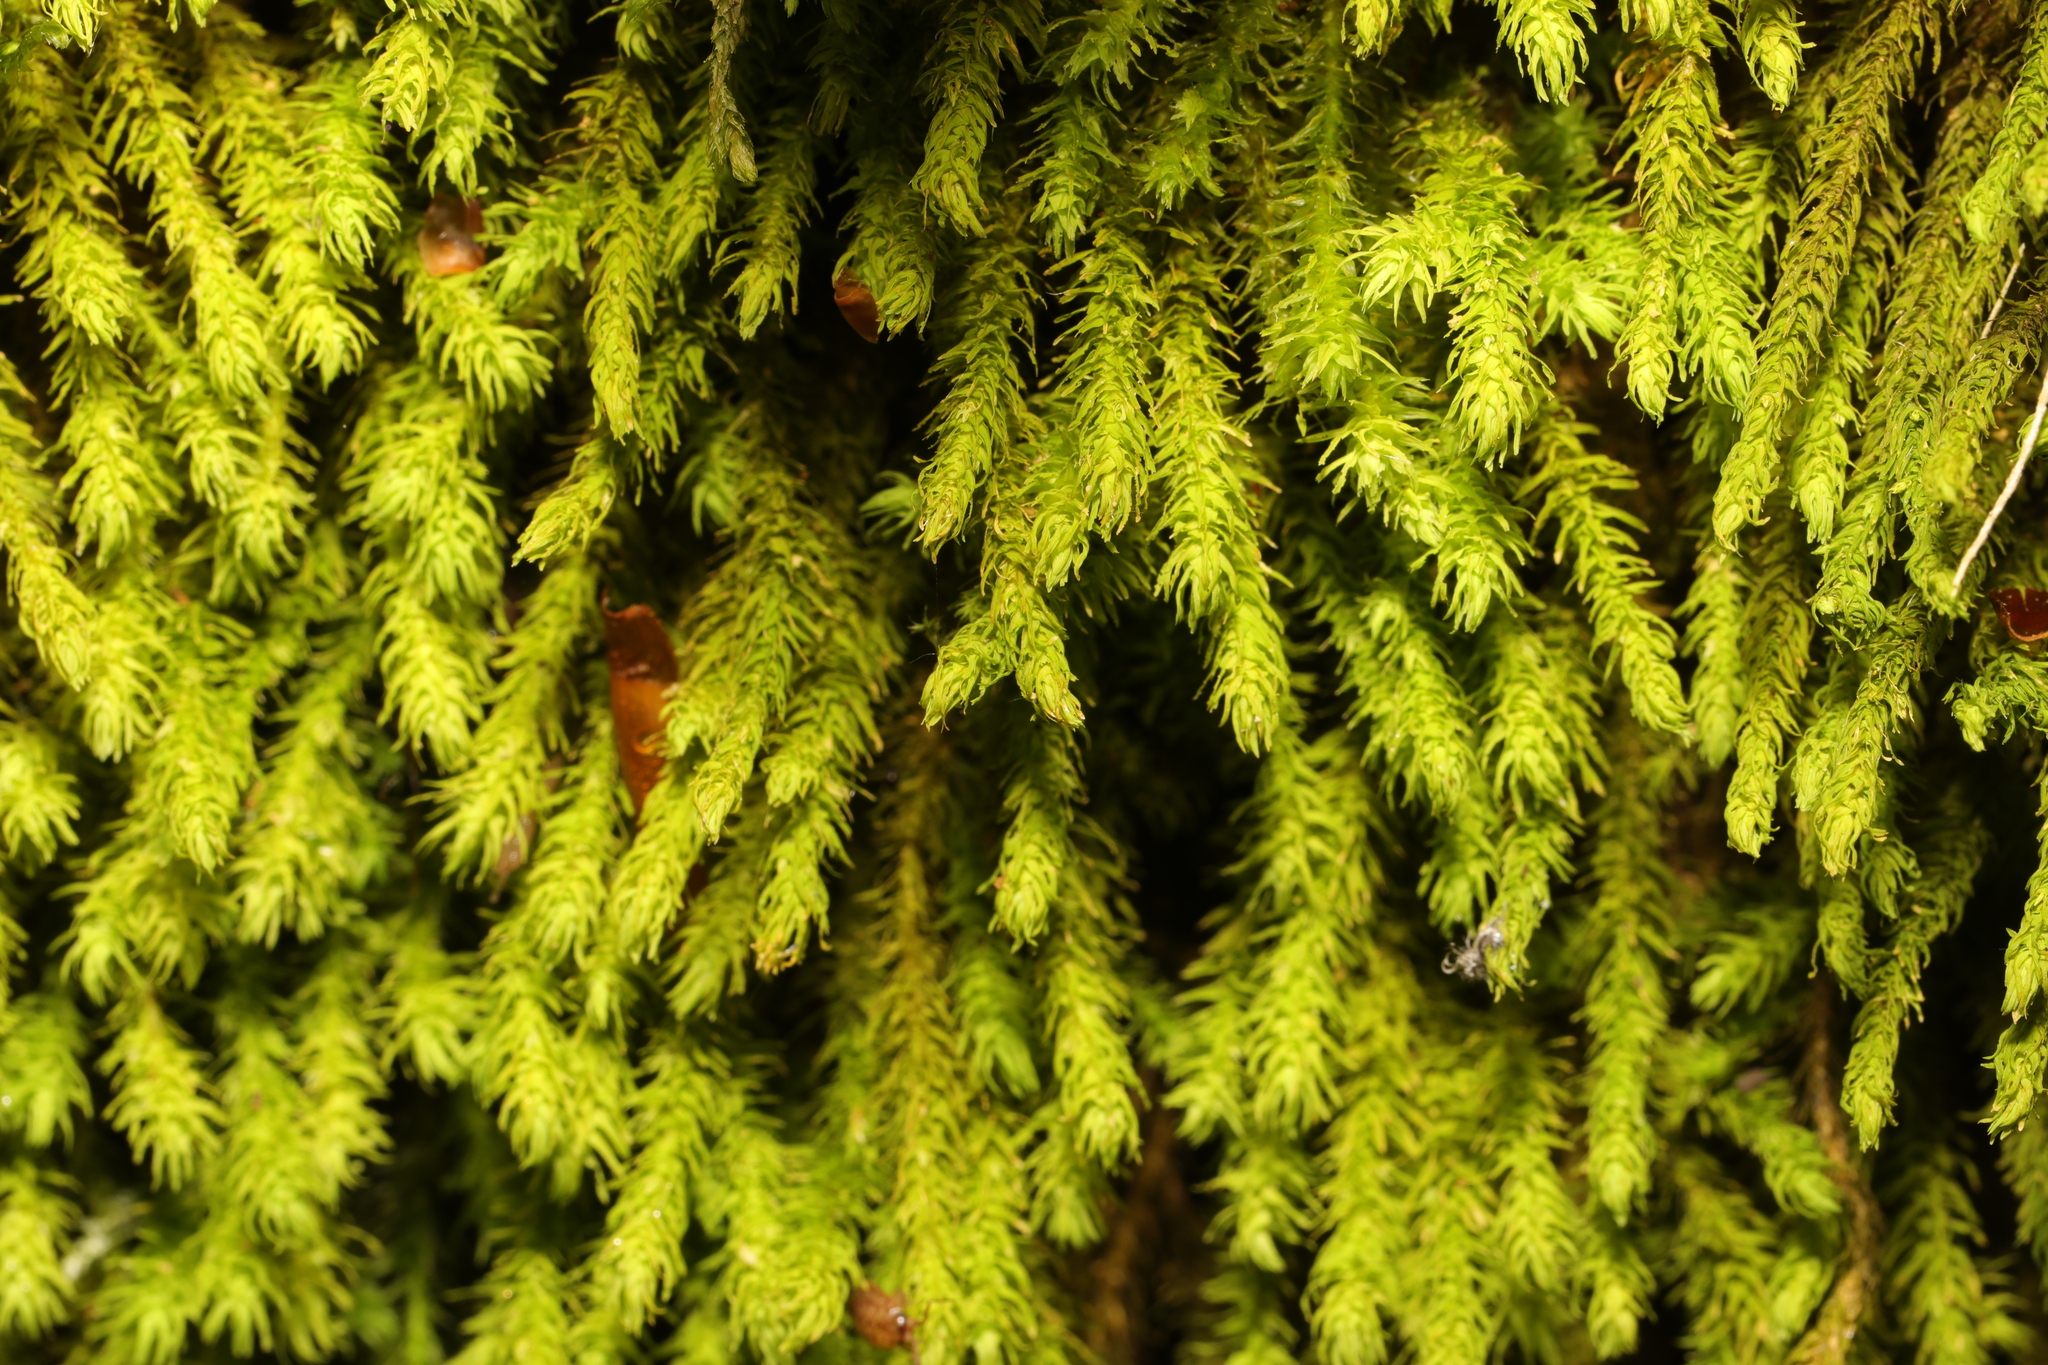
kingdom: Plantae
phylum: Bryophyta
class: Bryopsida
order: Hypnales
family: Anomodontaceae
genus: Anomodon
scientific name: Anomodon viticulosus
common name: Tall anomodon
